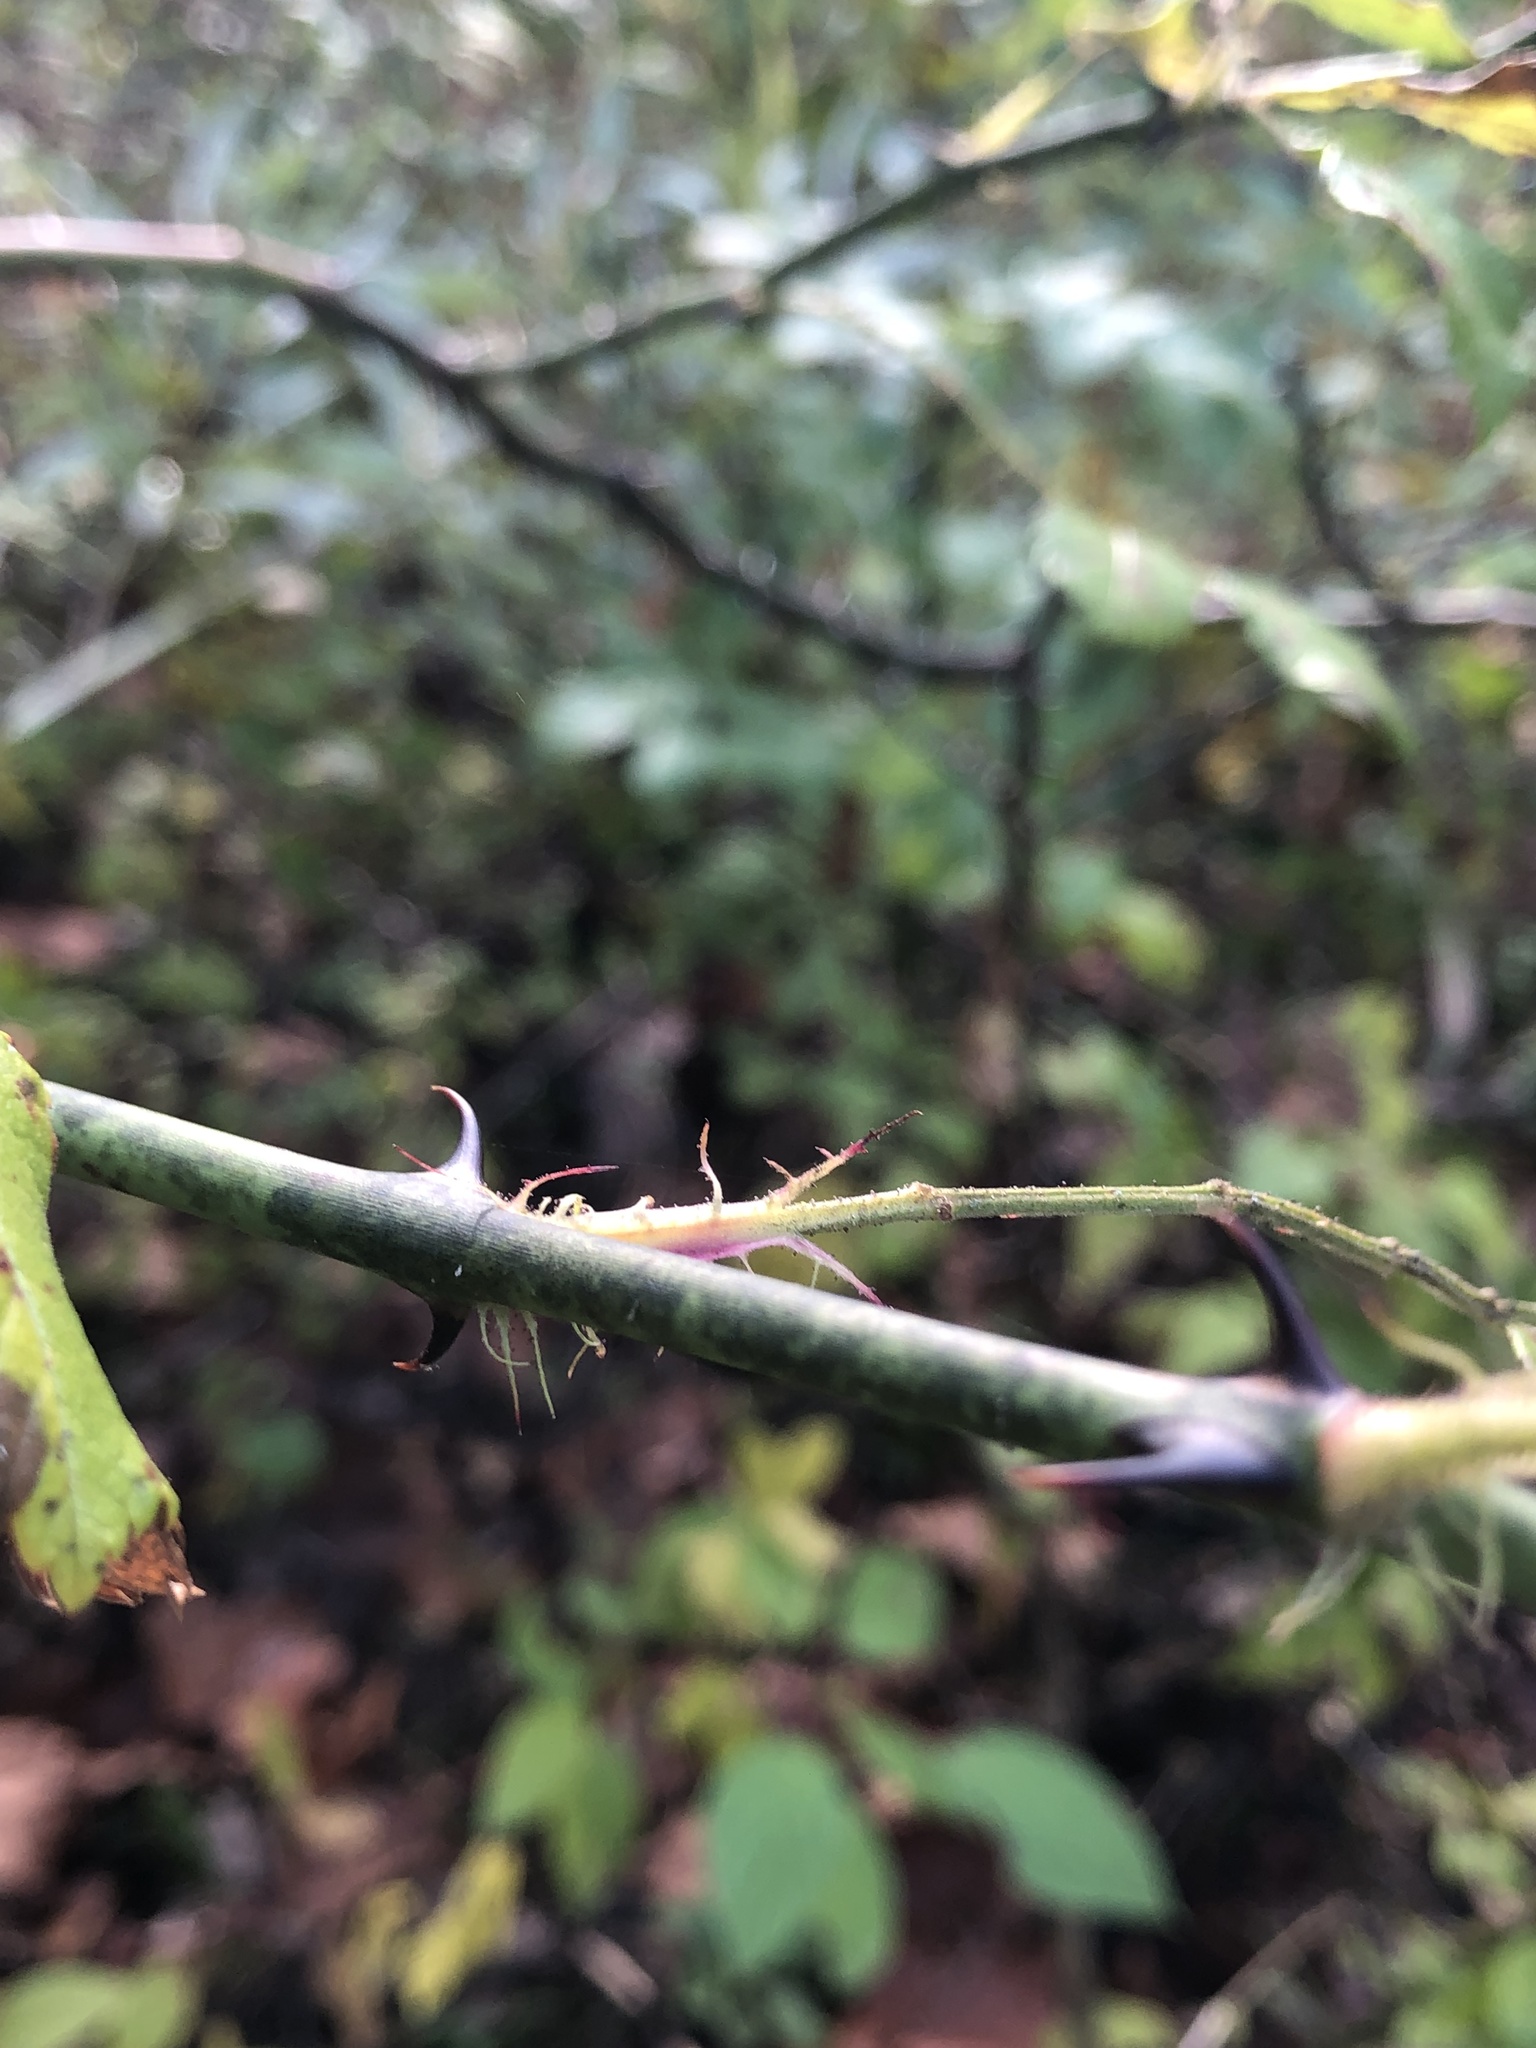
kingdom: Plantae
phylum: Tracheophyta
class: Magnoliopsida
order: Rosales
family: Rosaceae
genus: Rosa
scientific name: Rosa multiflora
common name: Multiflora rose
